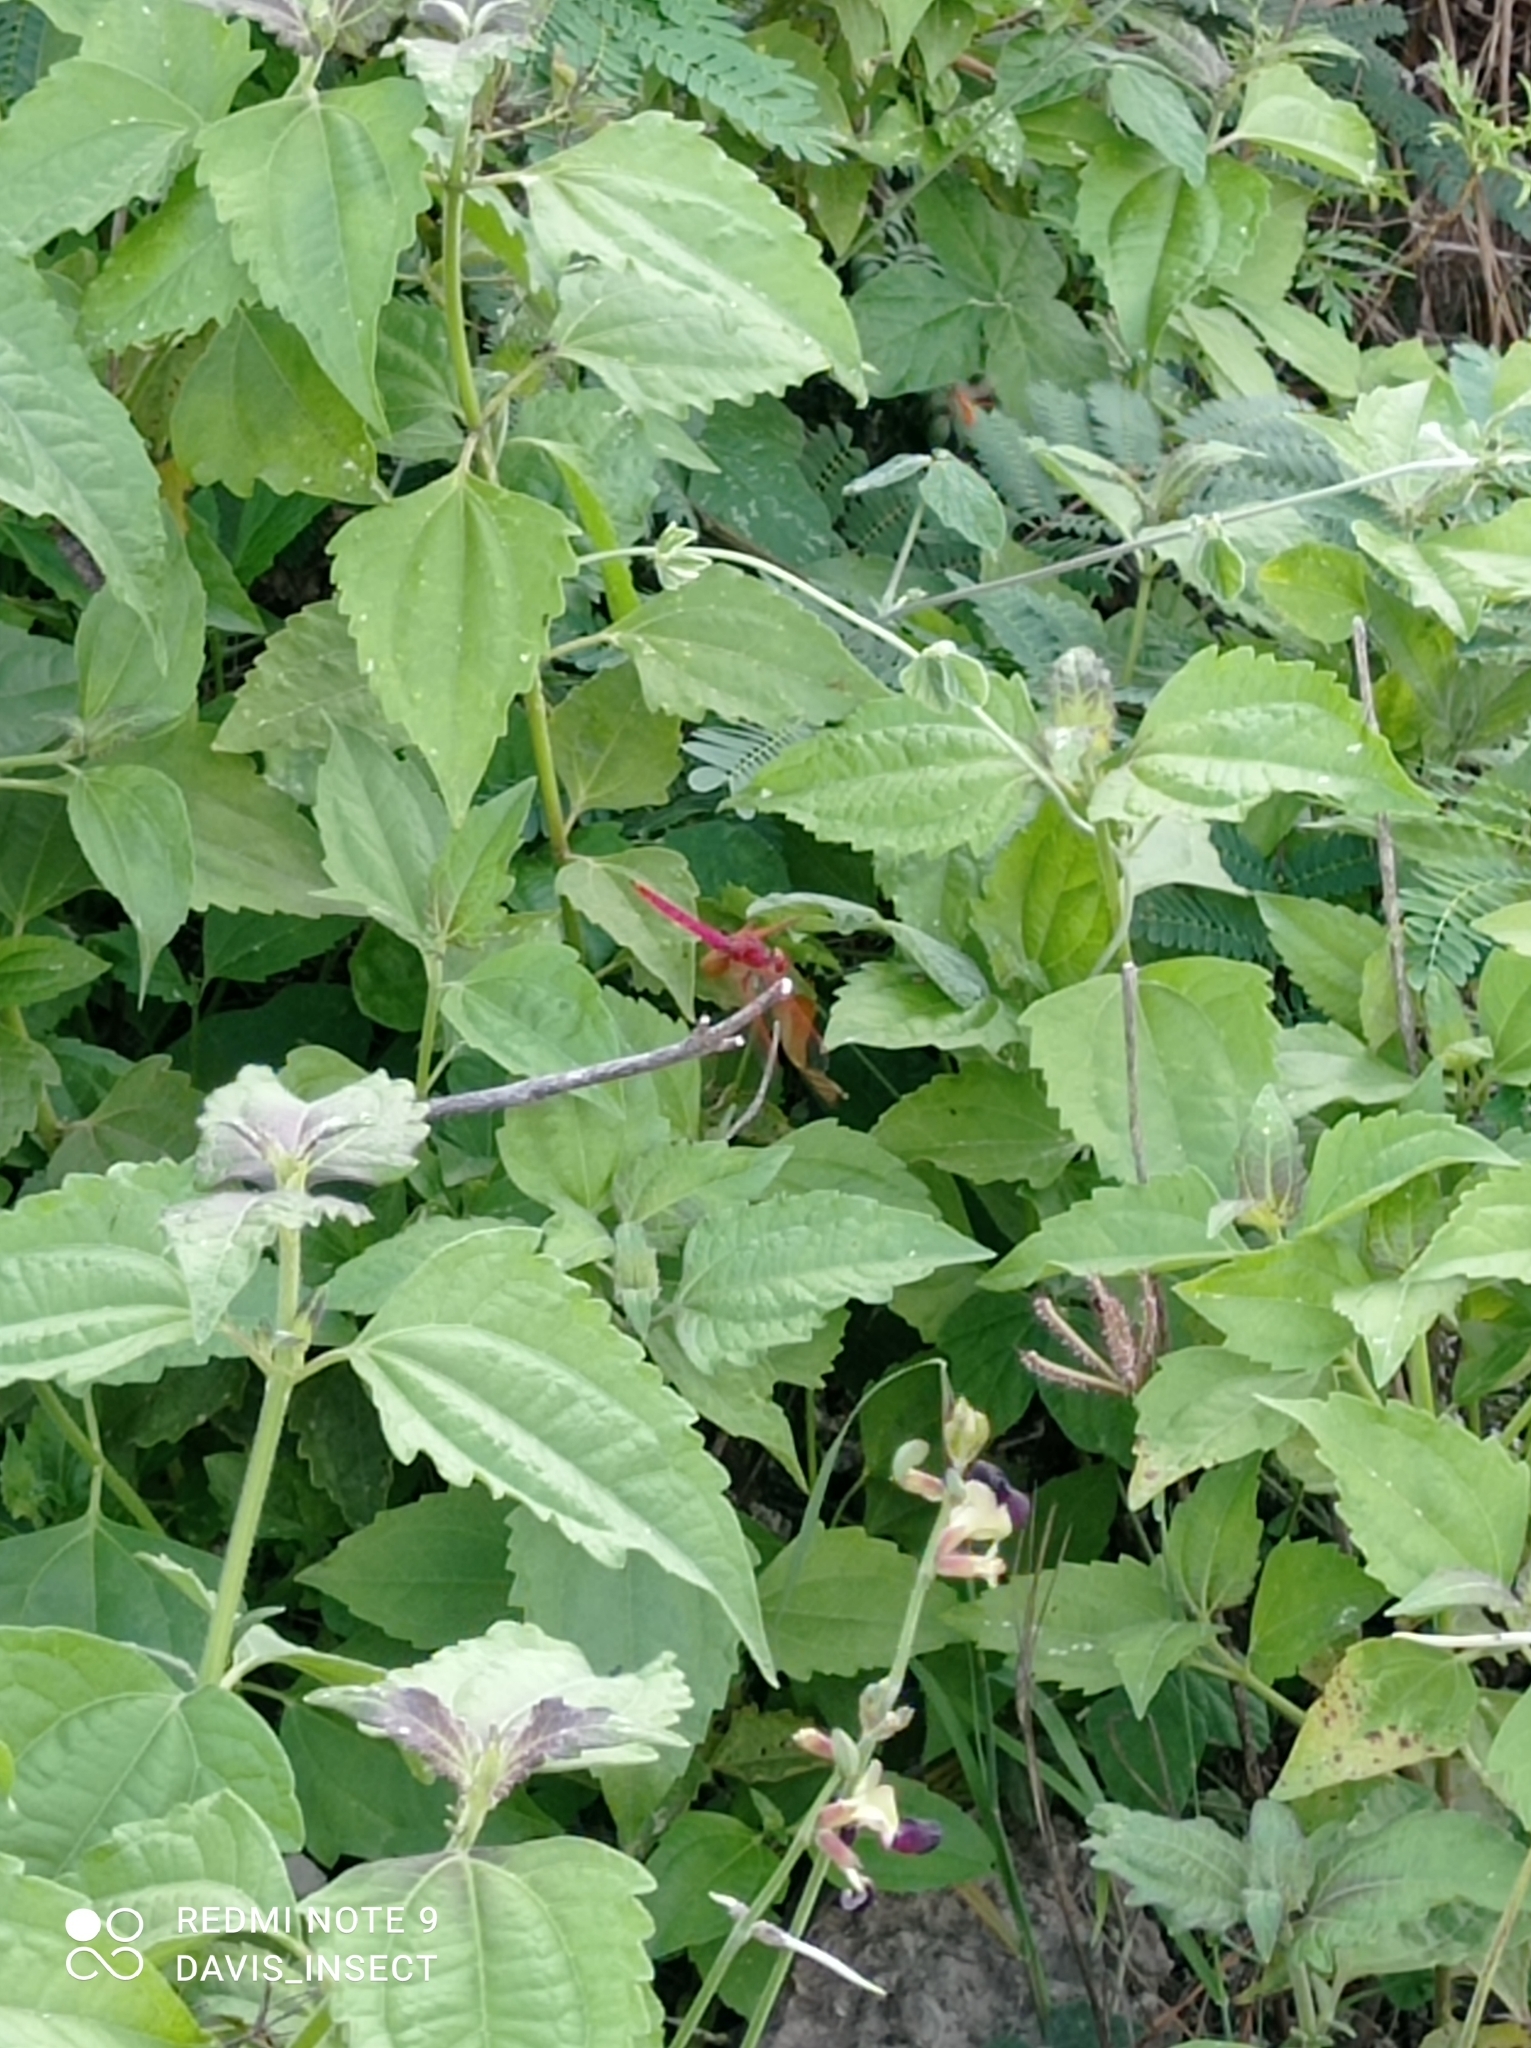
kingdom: Animalia
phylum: Arthropoda
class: Insecta
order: Odonata
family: Libellulidae
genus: Trithemis
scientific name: Trithemis aurora
